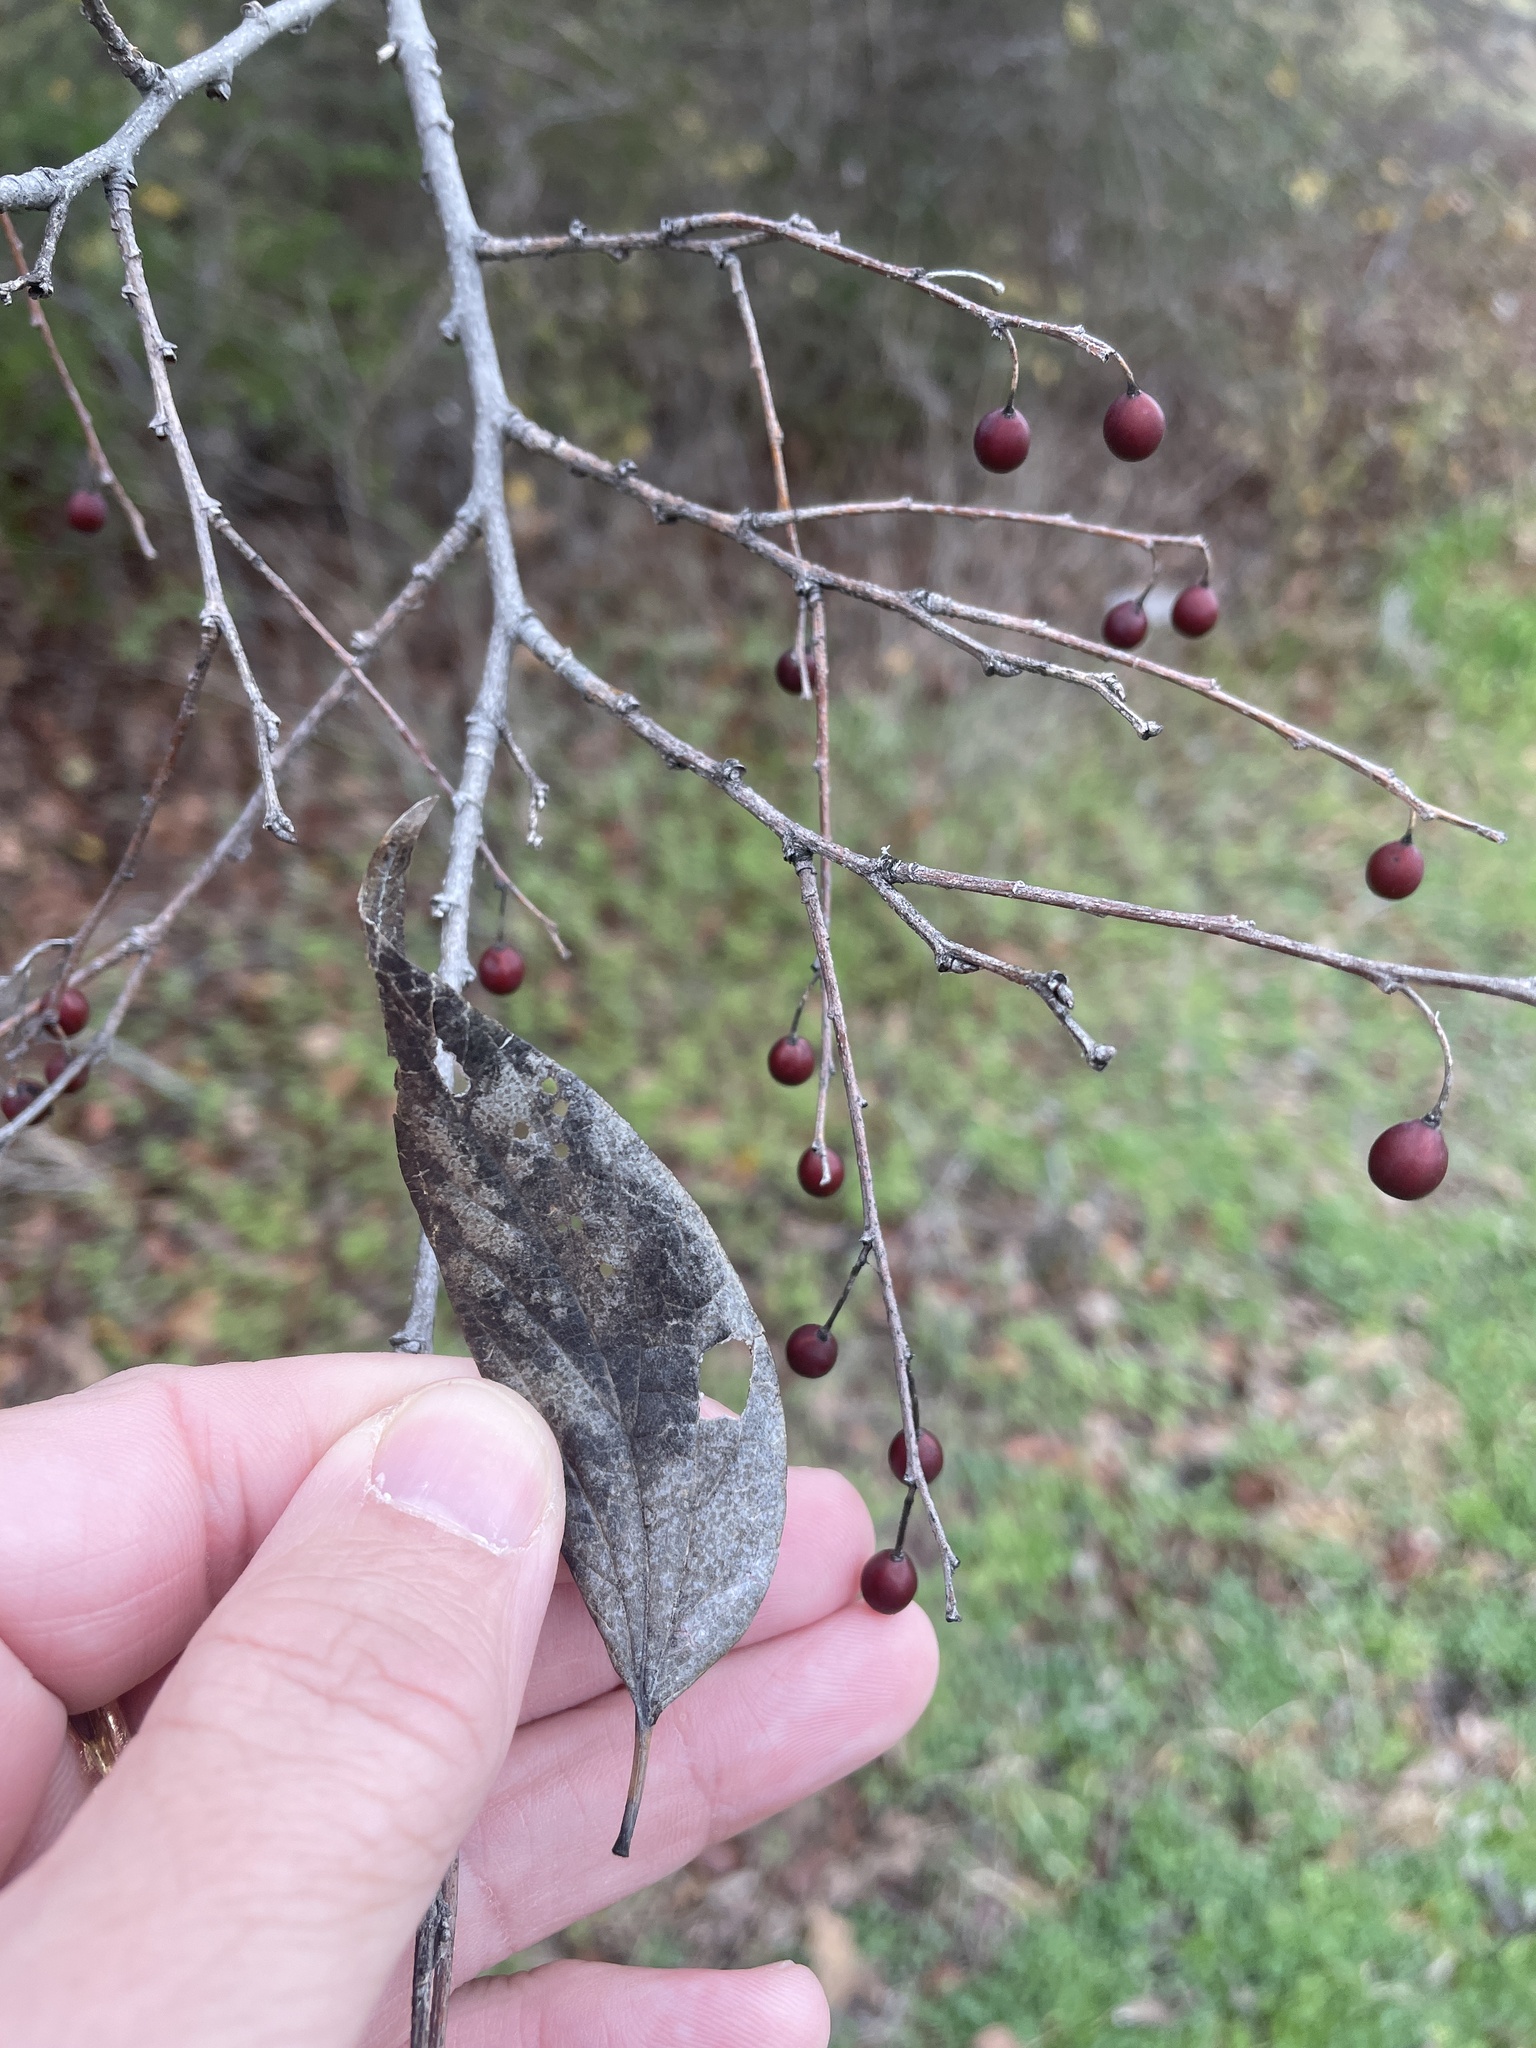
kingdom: Plantae
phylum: Tracheophyta
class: Magnoliopsida
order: Rosales
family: Cannabaceae
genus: Celtis
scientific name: Celtis laevigata
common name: Sugarberry
